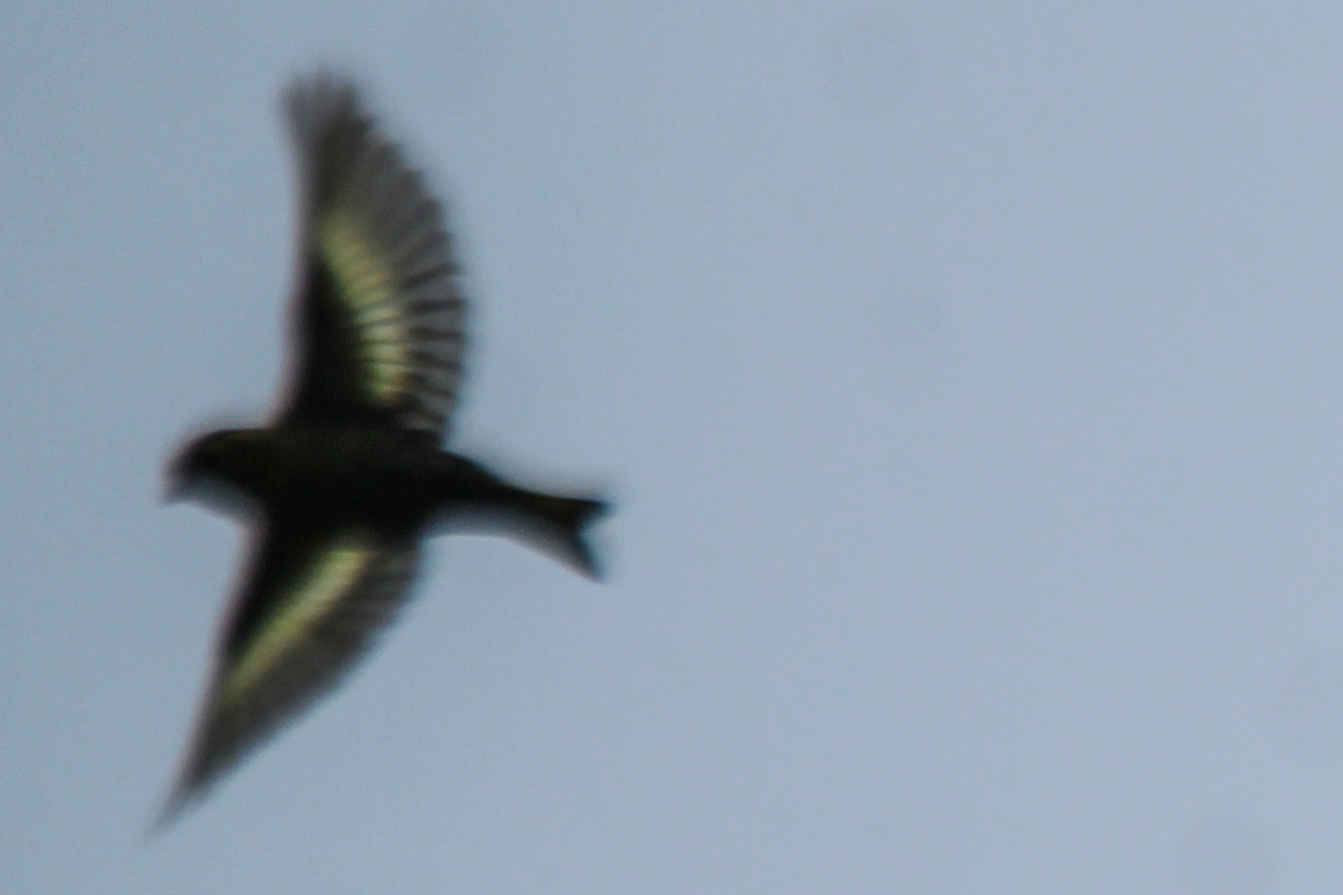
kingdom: Animalia
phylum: Chordata
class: Aves
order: Passeriformes
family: Fringillidae
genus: Spinus
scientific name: Spinus spinus
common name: Eurasian siskin
